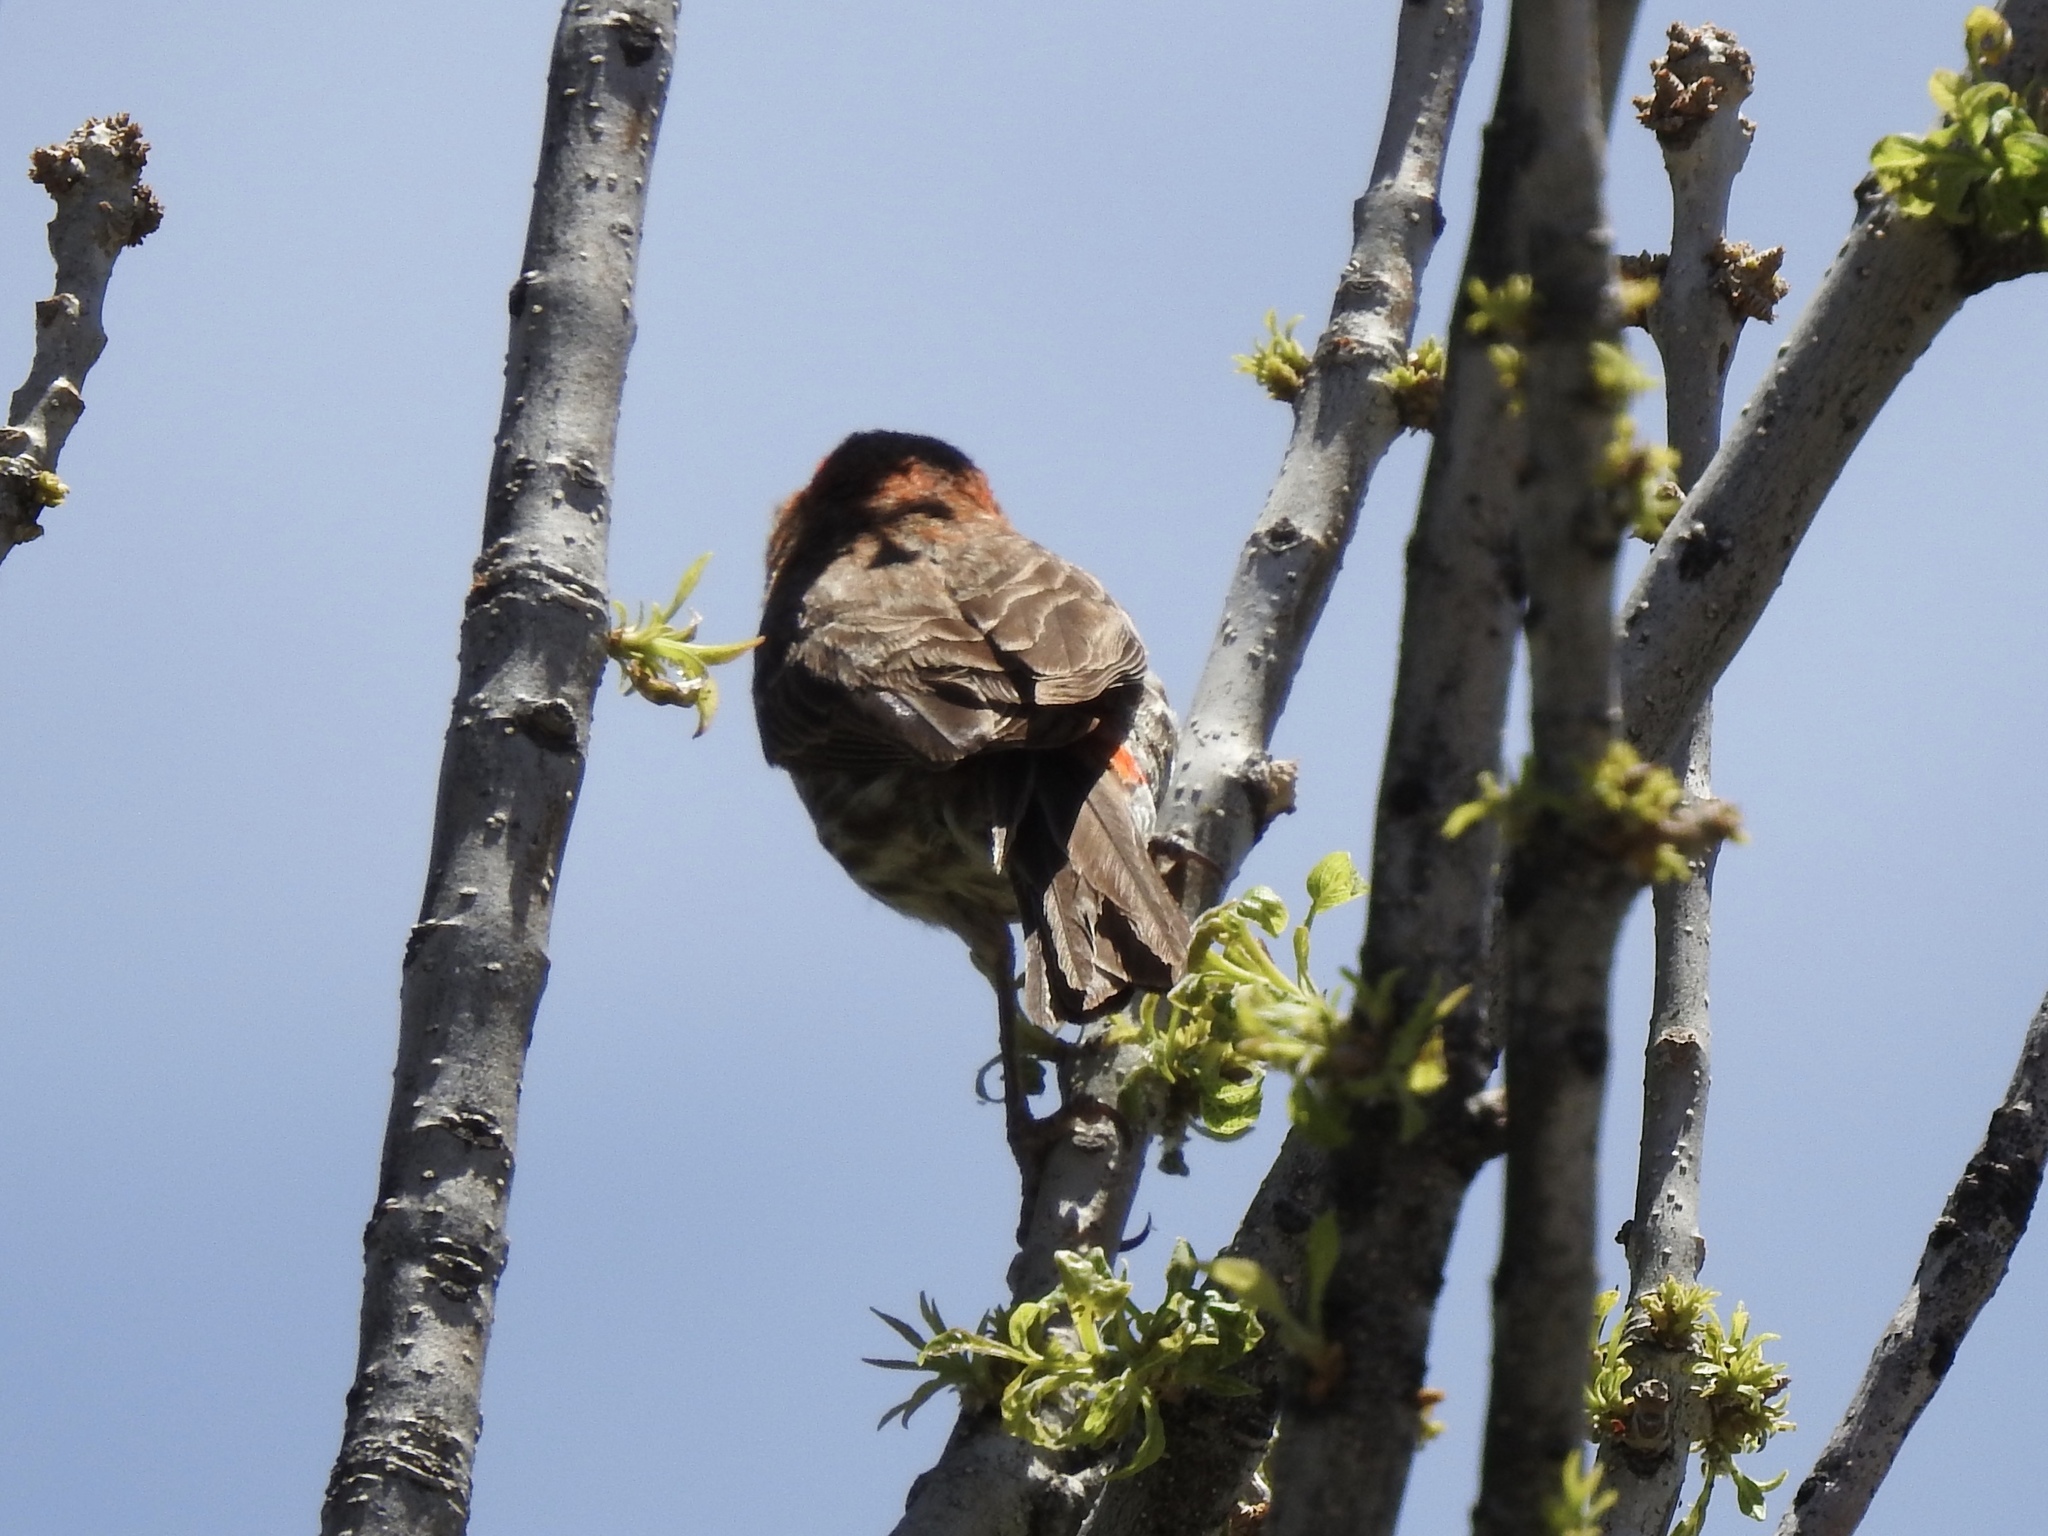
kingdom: Animalia
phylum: Chordata
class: Aves
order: Passeriformes
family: Fringillidae
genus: Haemorhous
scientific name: Haemorhous mexicanus
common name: House finch
